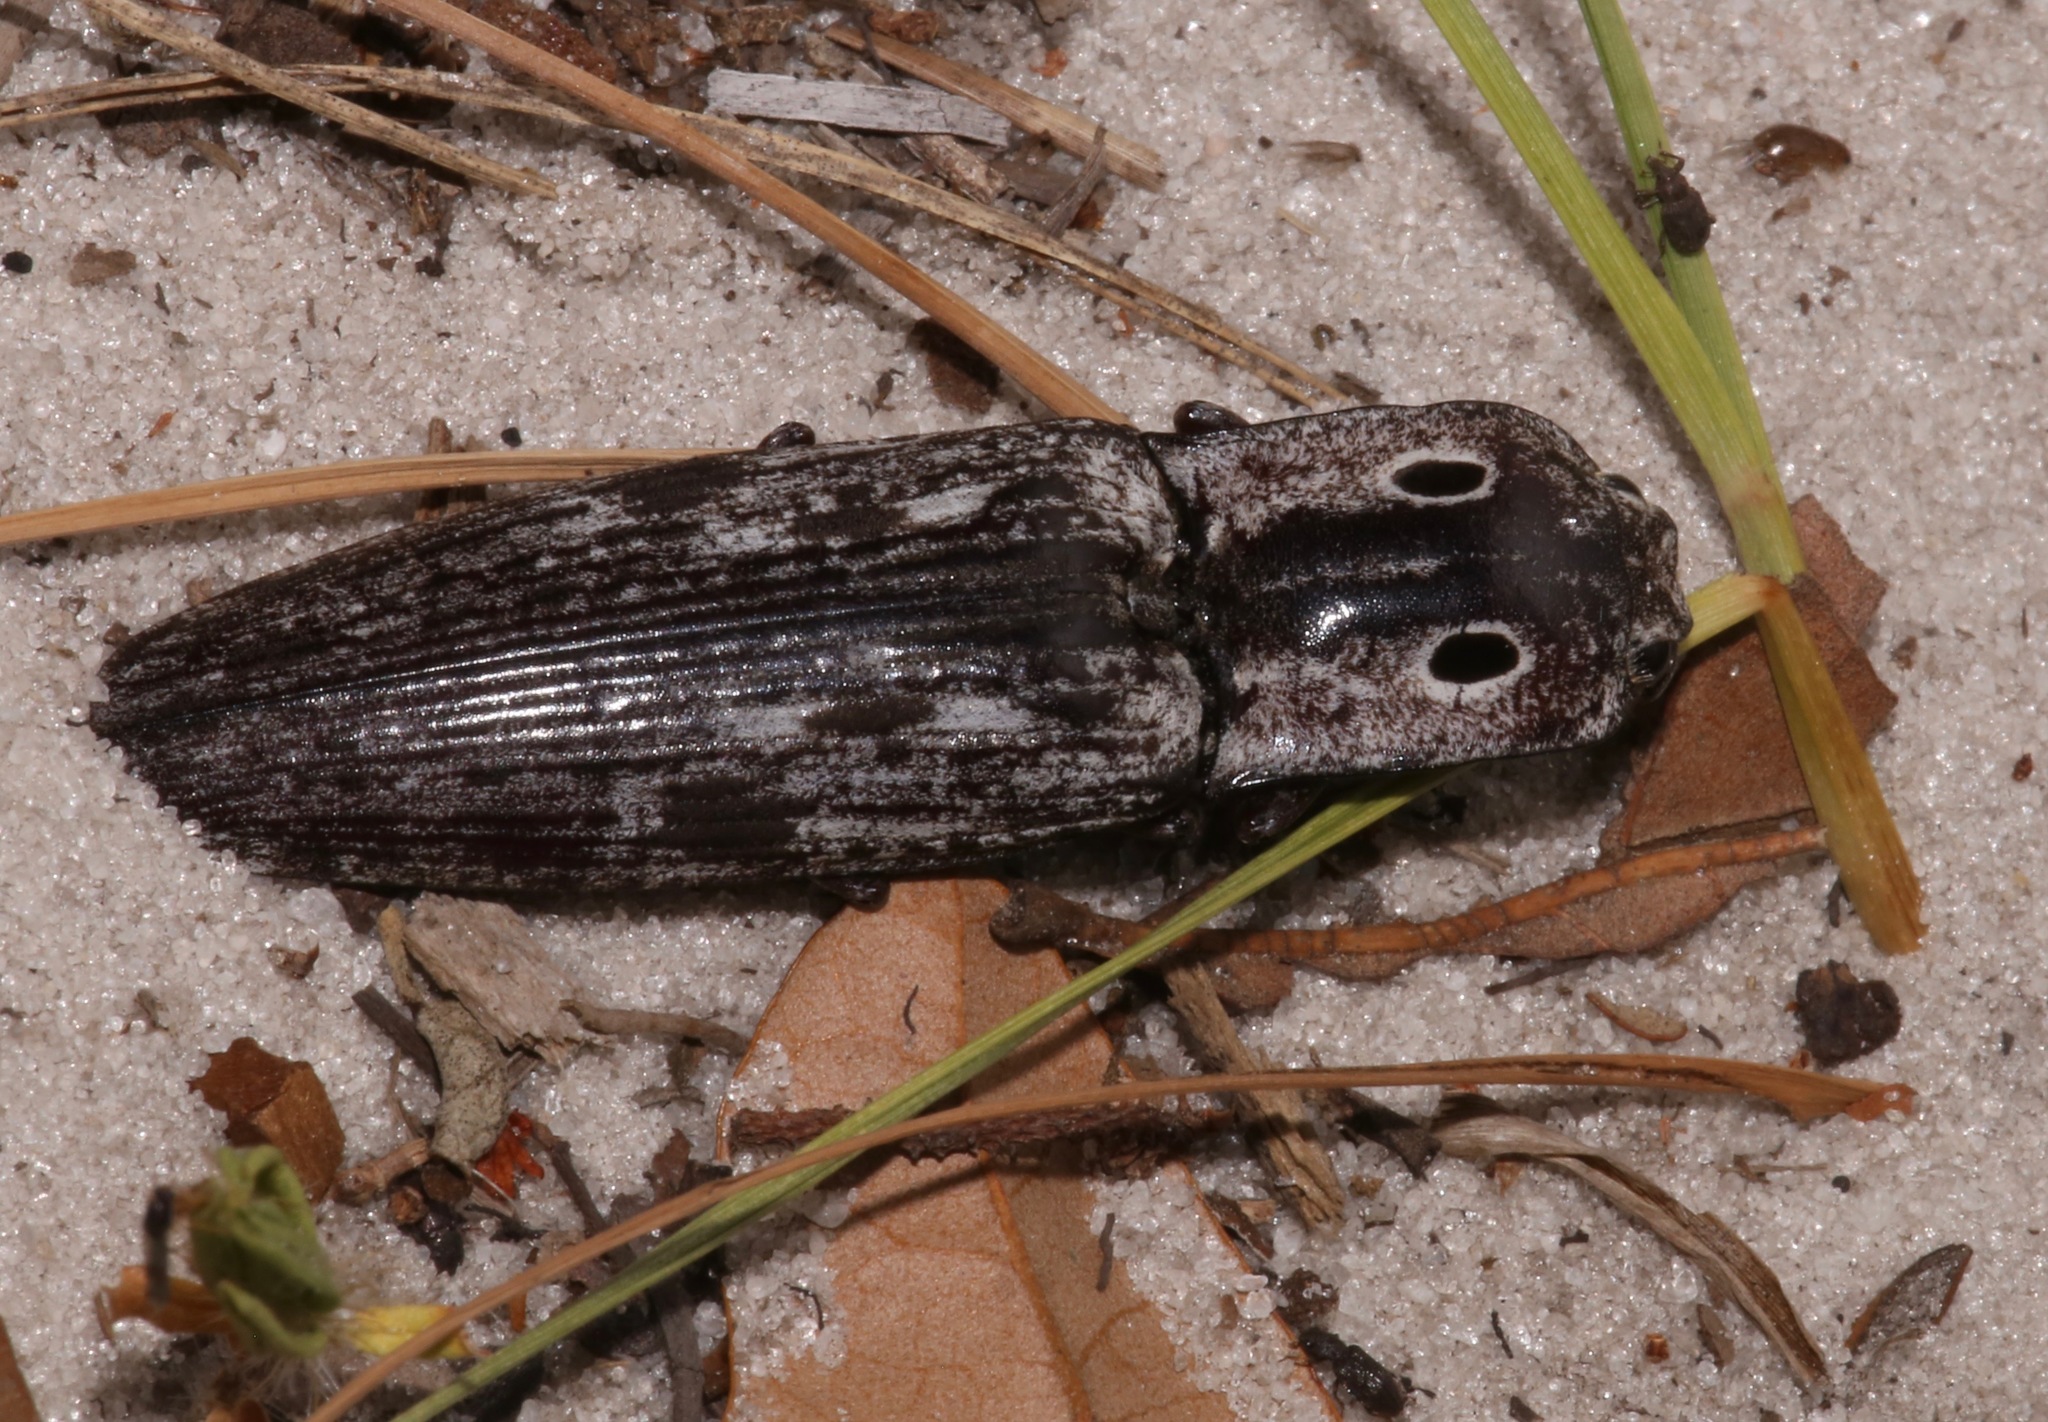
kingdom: Animalia
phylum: Arthropoda
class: Insecta
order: Coleoptera
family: Elateridae
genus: Alaus
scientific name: Alaus myops
